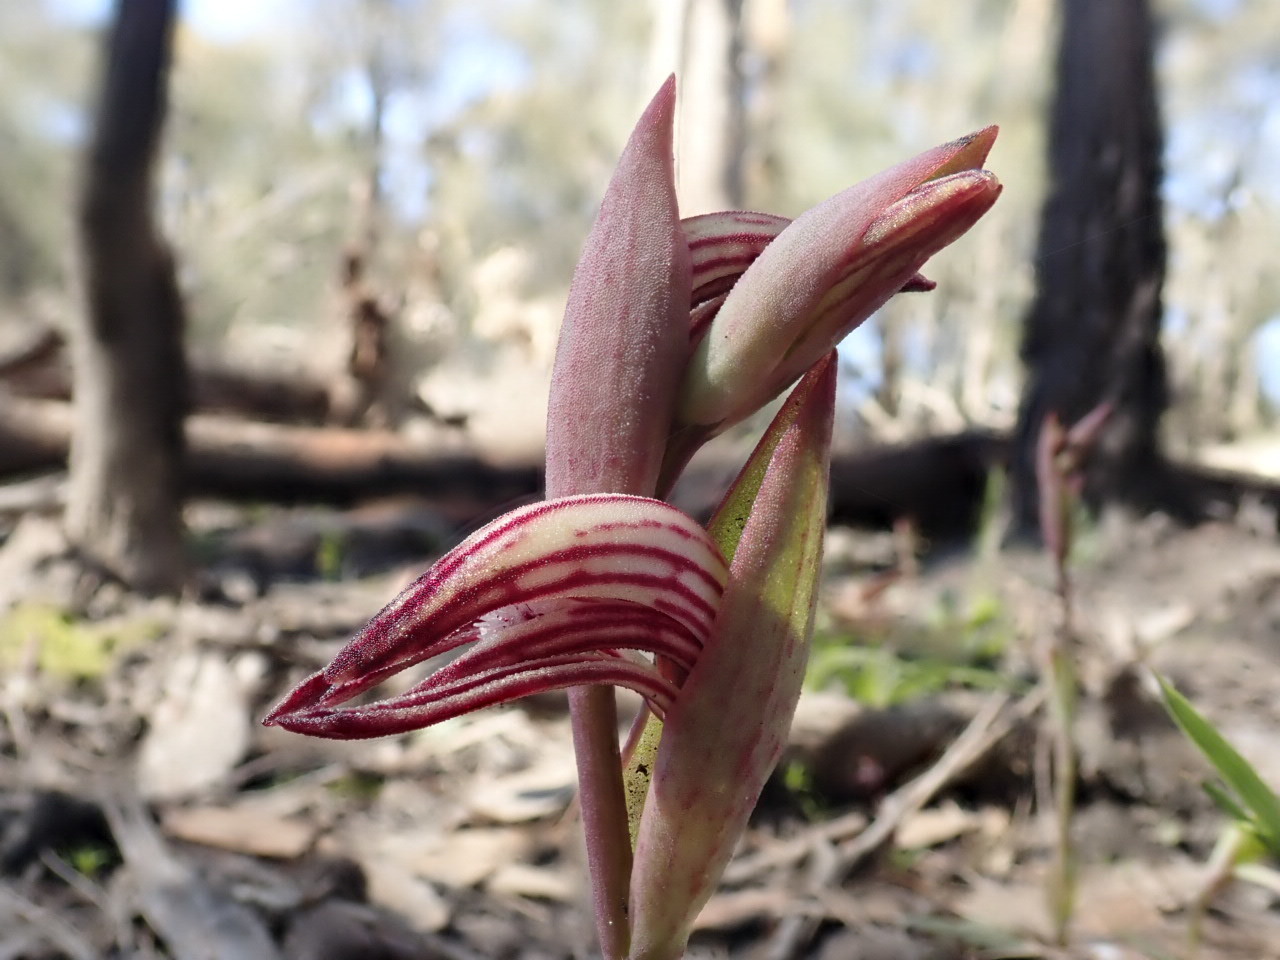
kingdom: Plantae
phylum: Tracheophyta
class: Liliopsida
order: Asparagales
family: Orchidaceae
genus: Pyrorchis
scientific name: Pyrorchis nigricans
